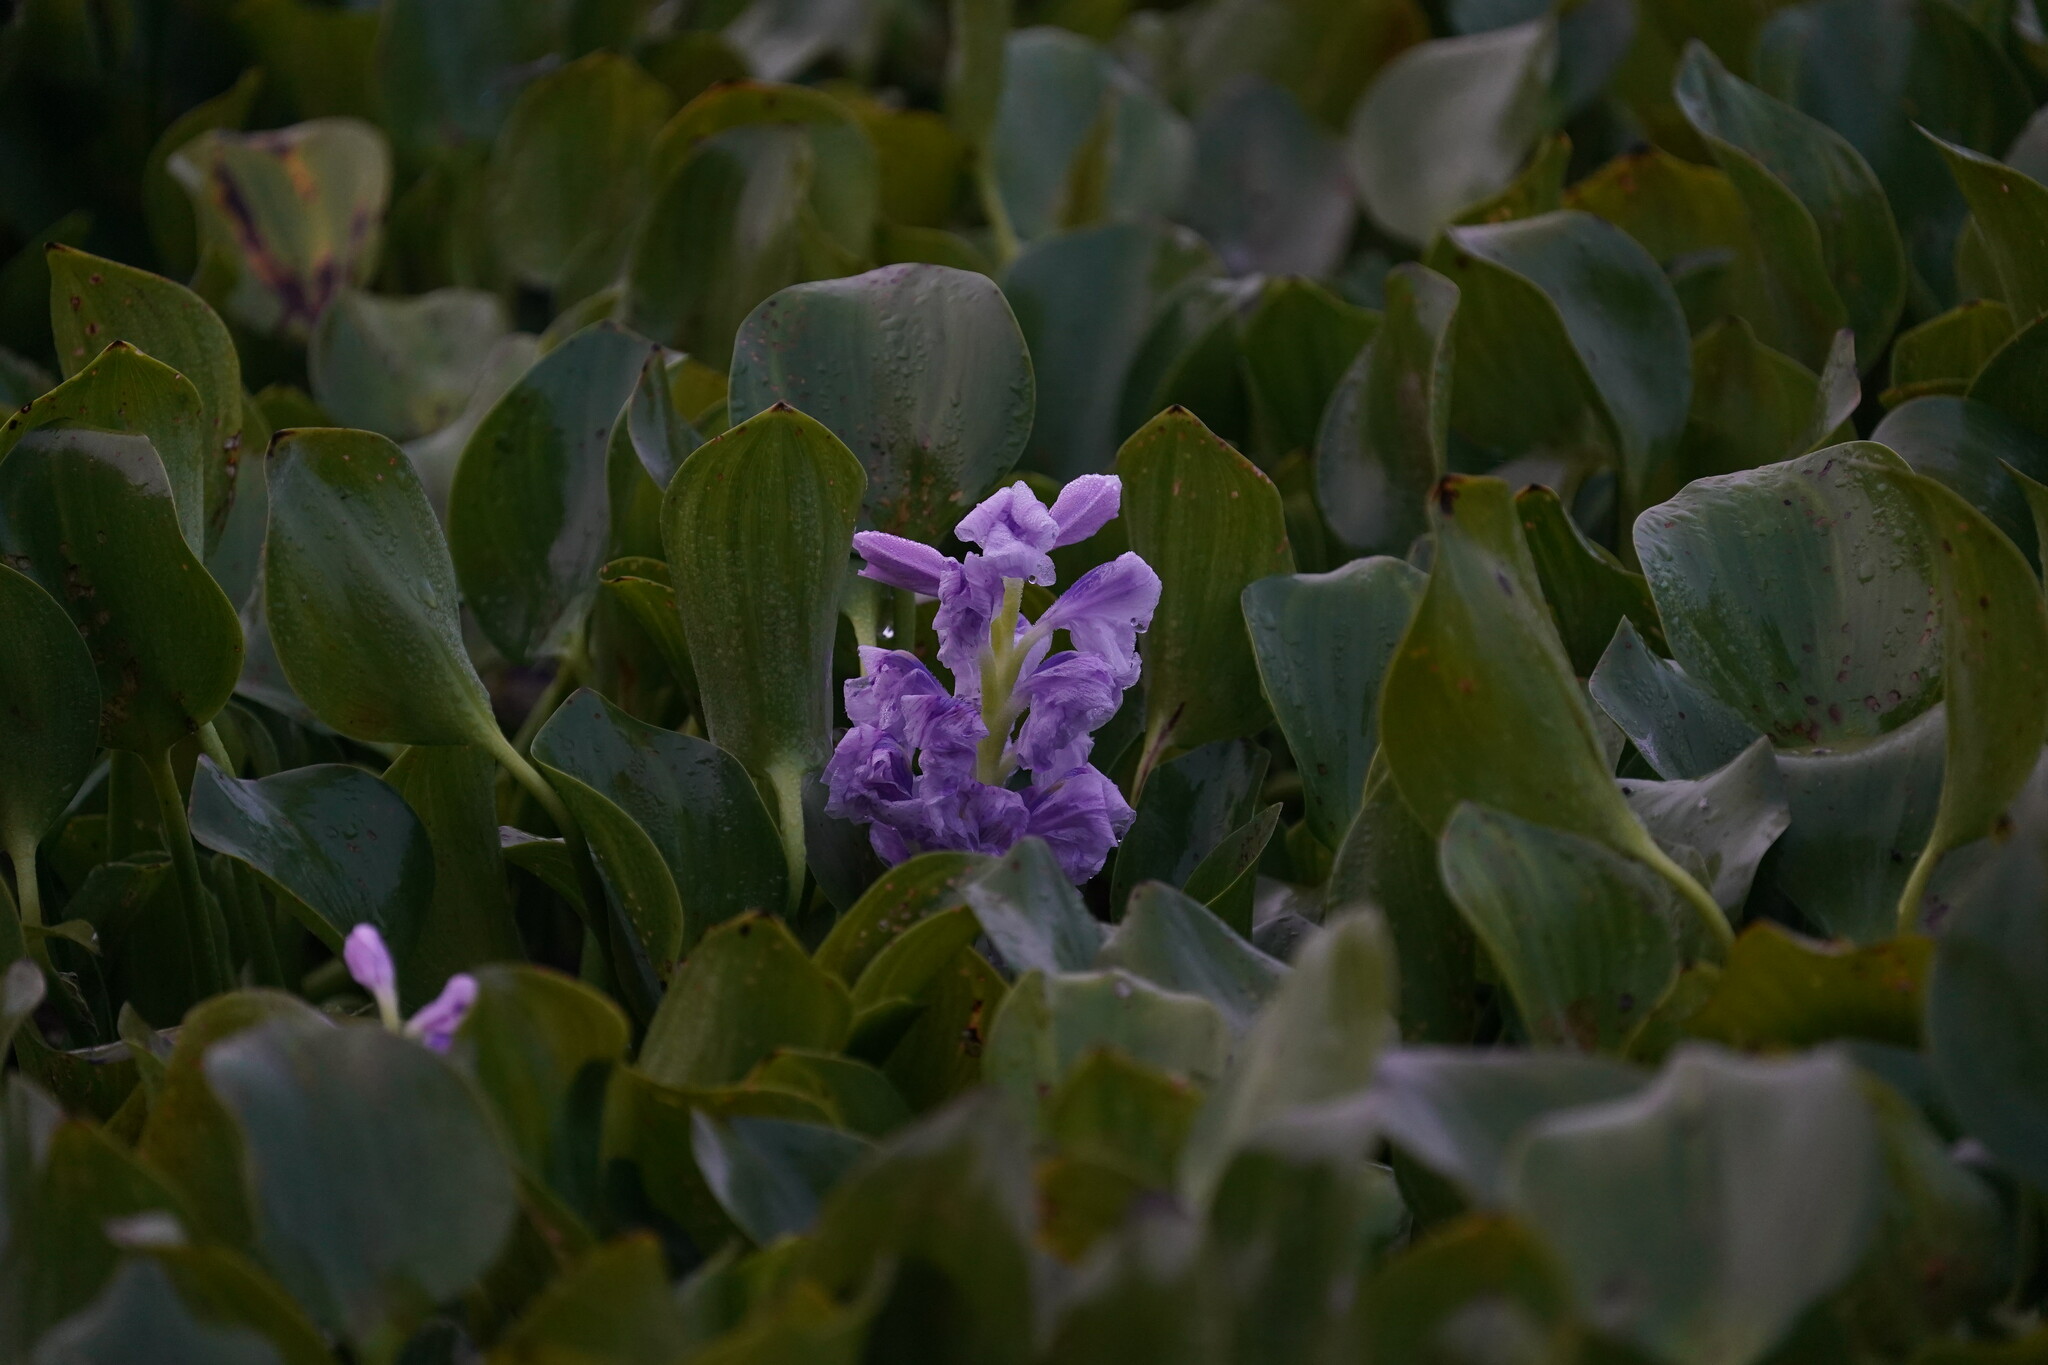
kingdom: Plantae
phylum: Tracheophyta
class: Liliopsida
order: Commelinales
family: Pontederiaceae
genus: Pontederia
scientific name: Pontederia crassipes
